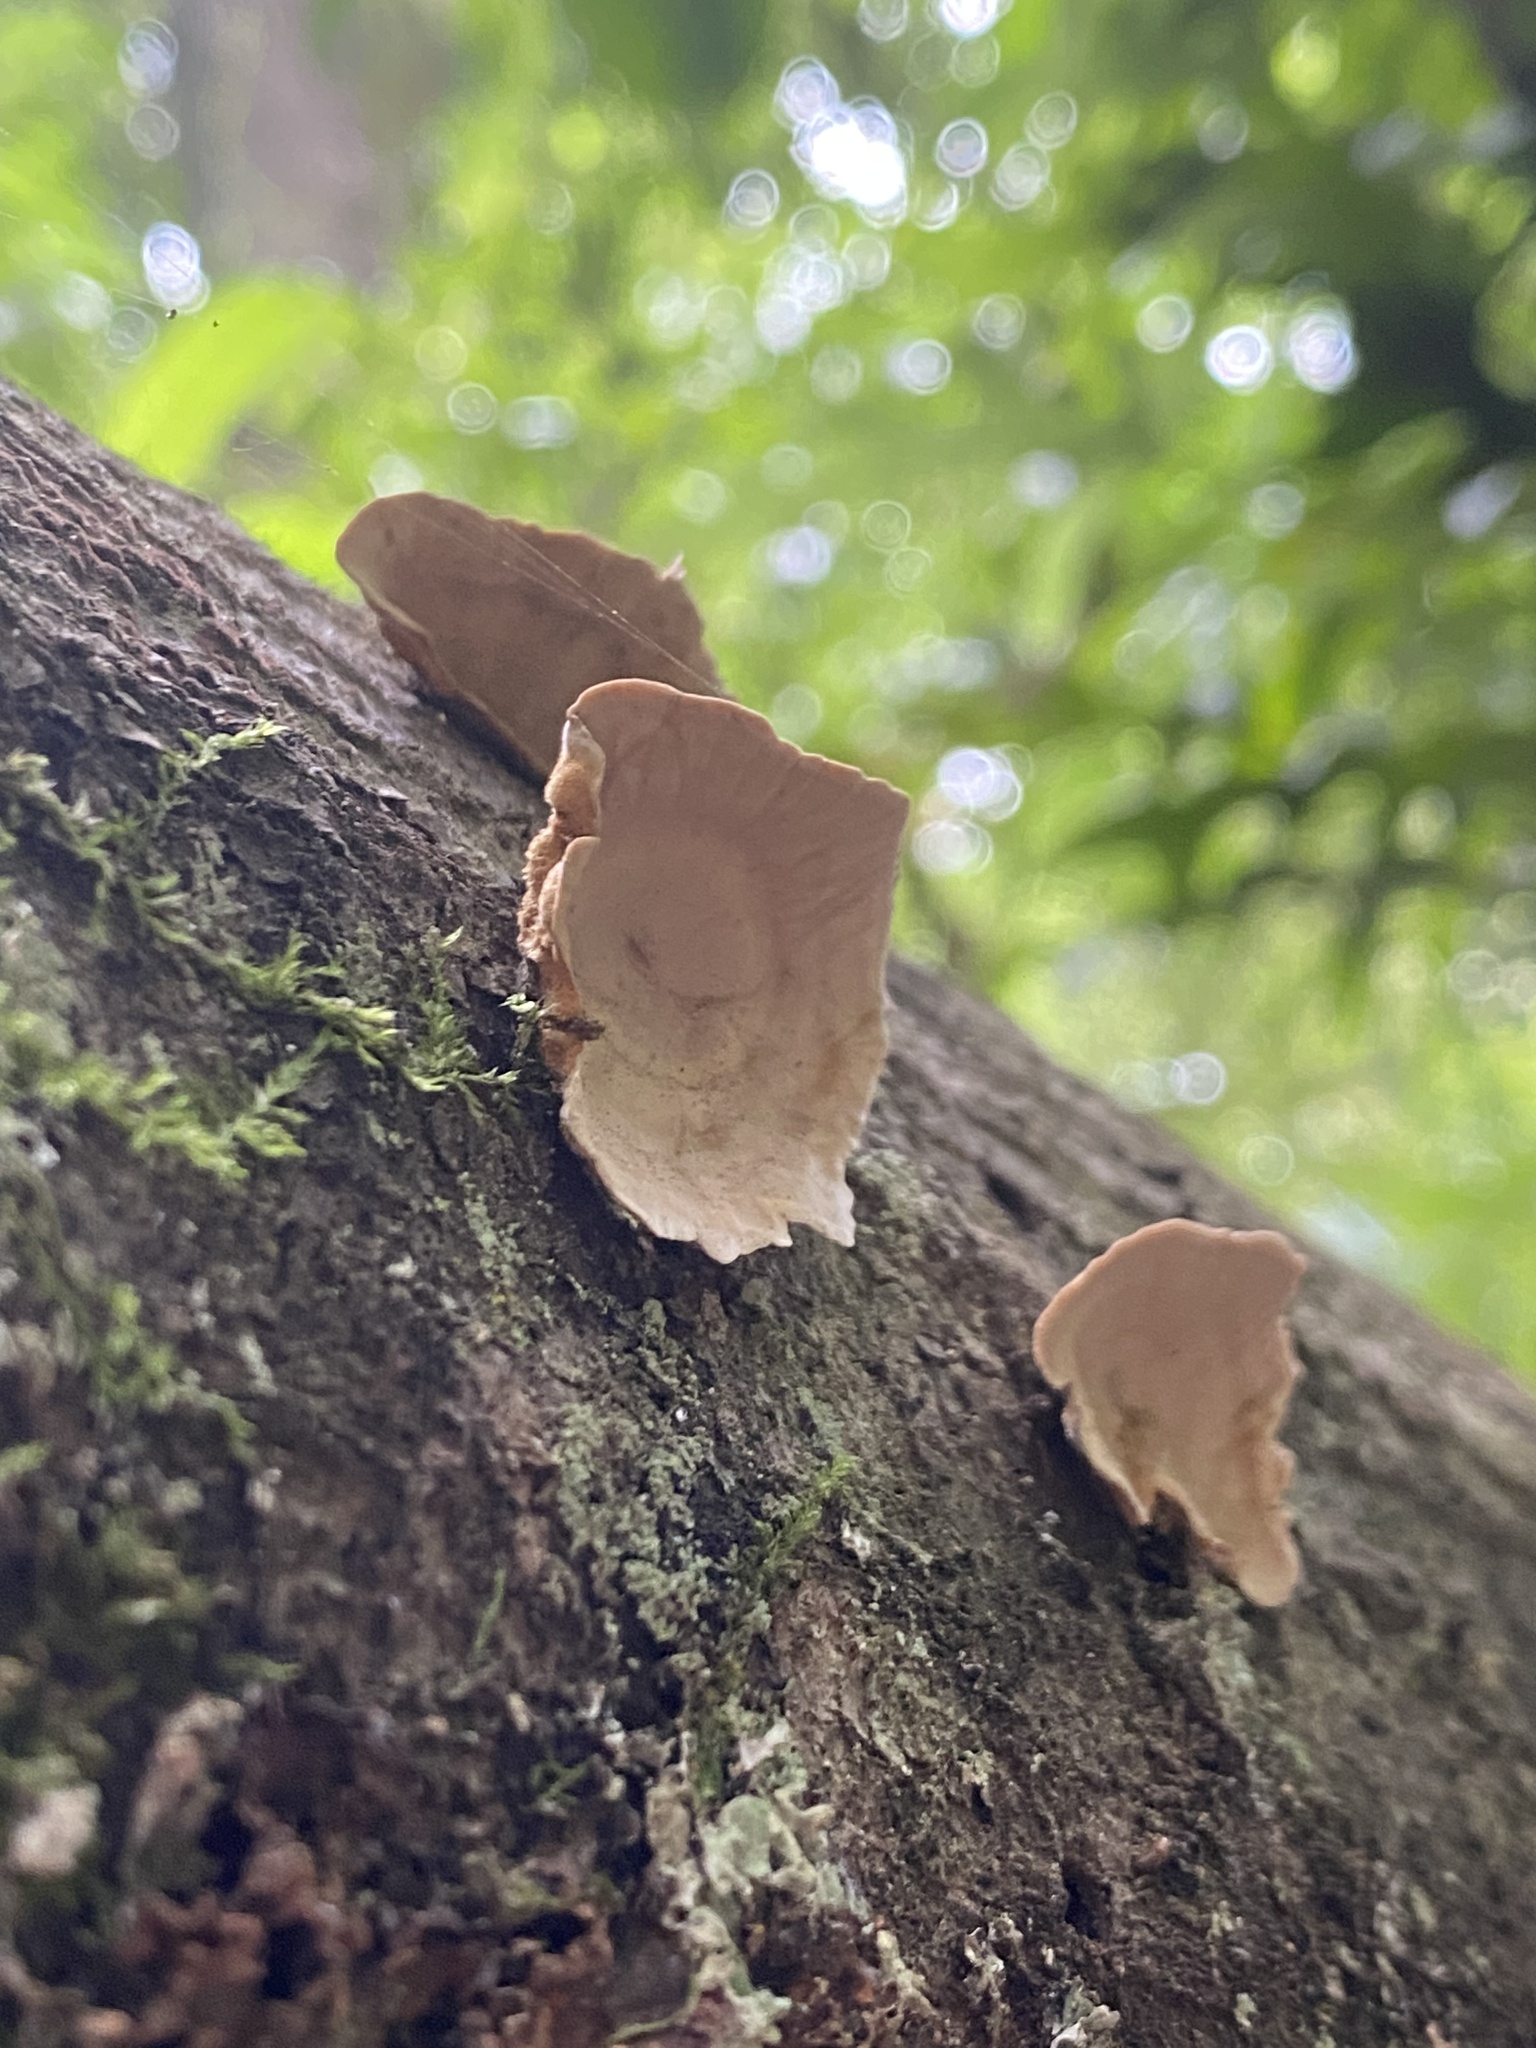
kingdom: Fungi
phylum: Basidiomycota
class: Agaricomycetes
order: Russulales
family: Stereaceae
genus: Stereum
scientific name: Stereum versicolor
